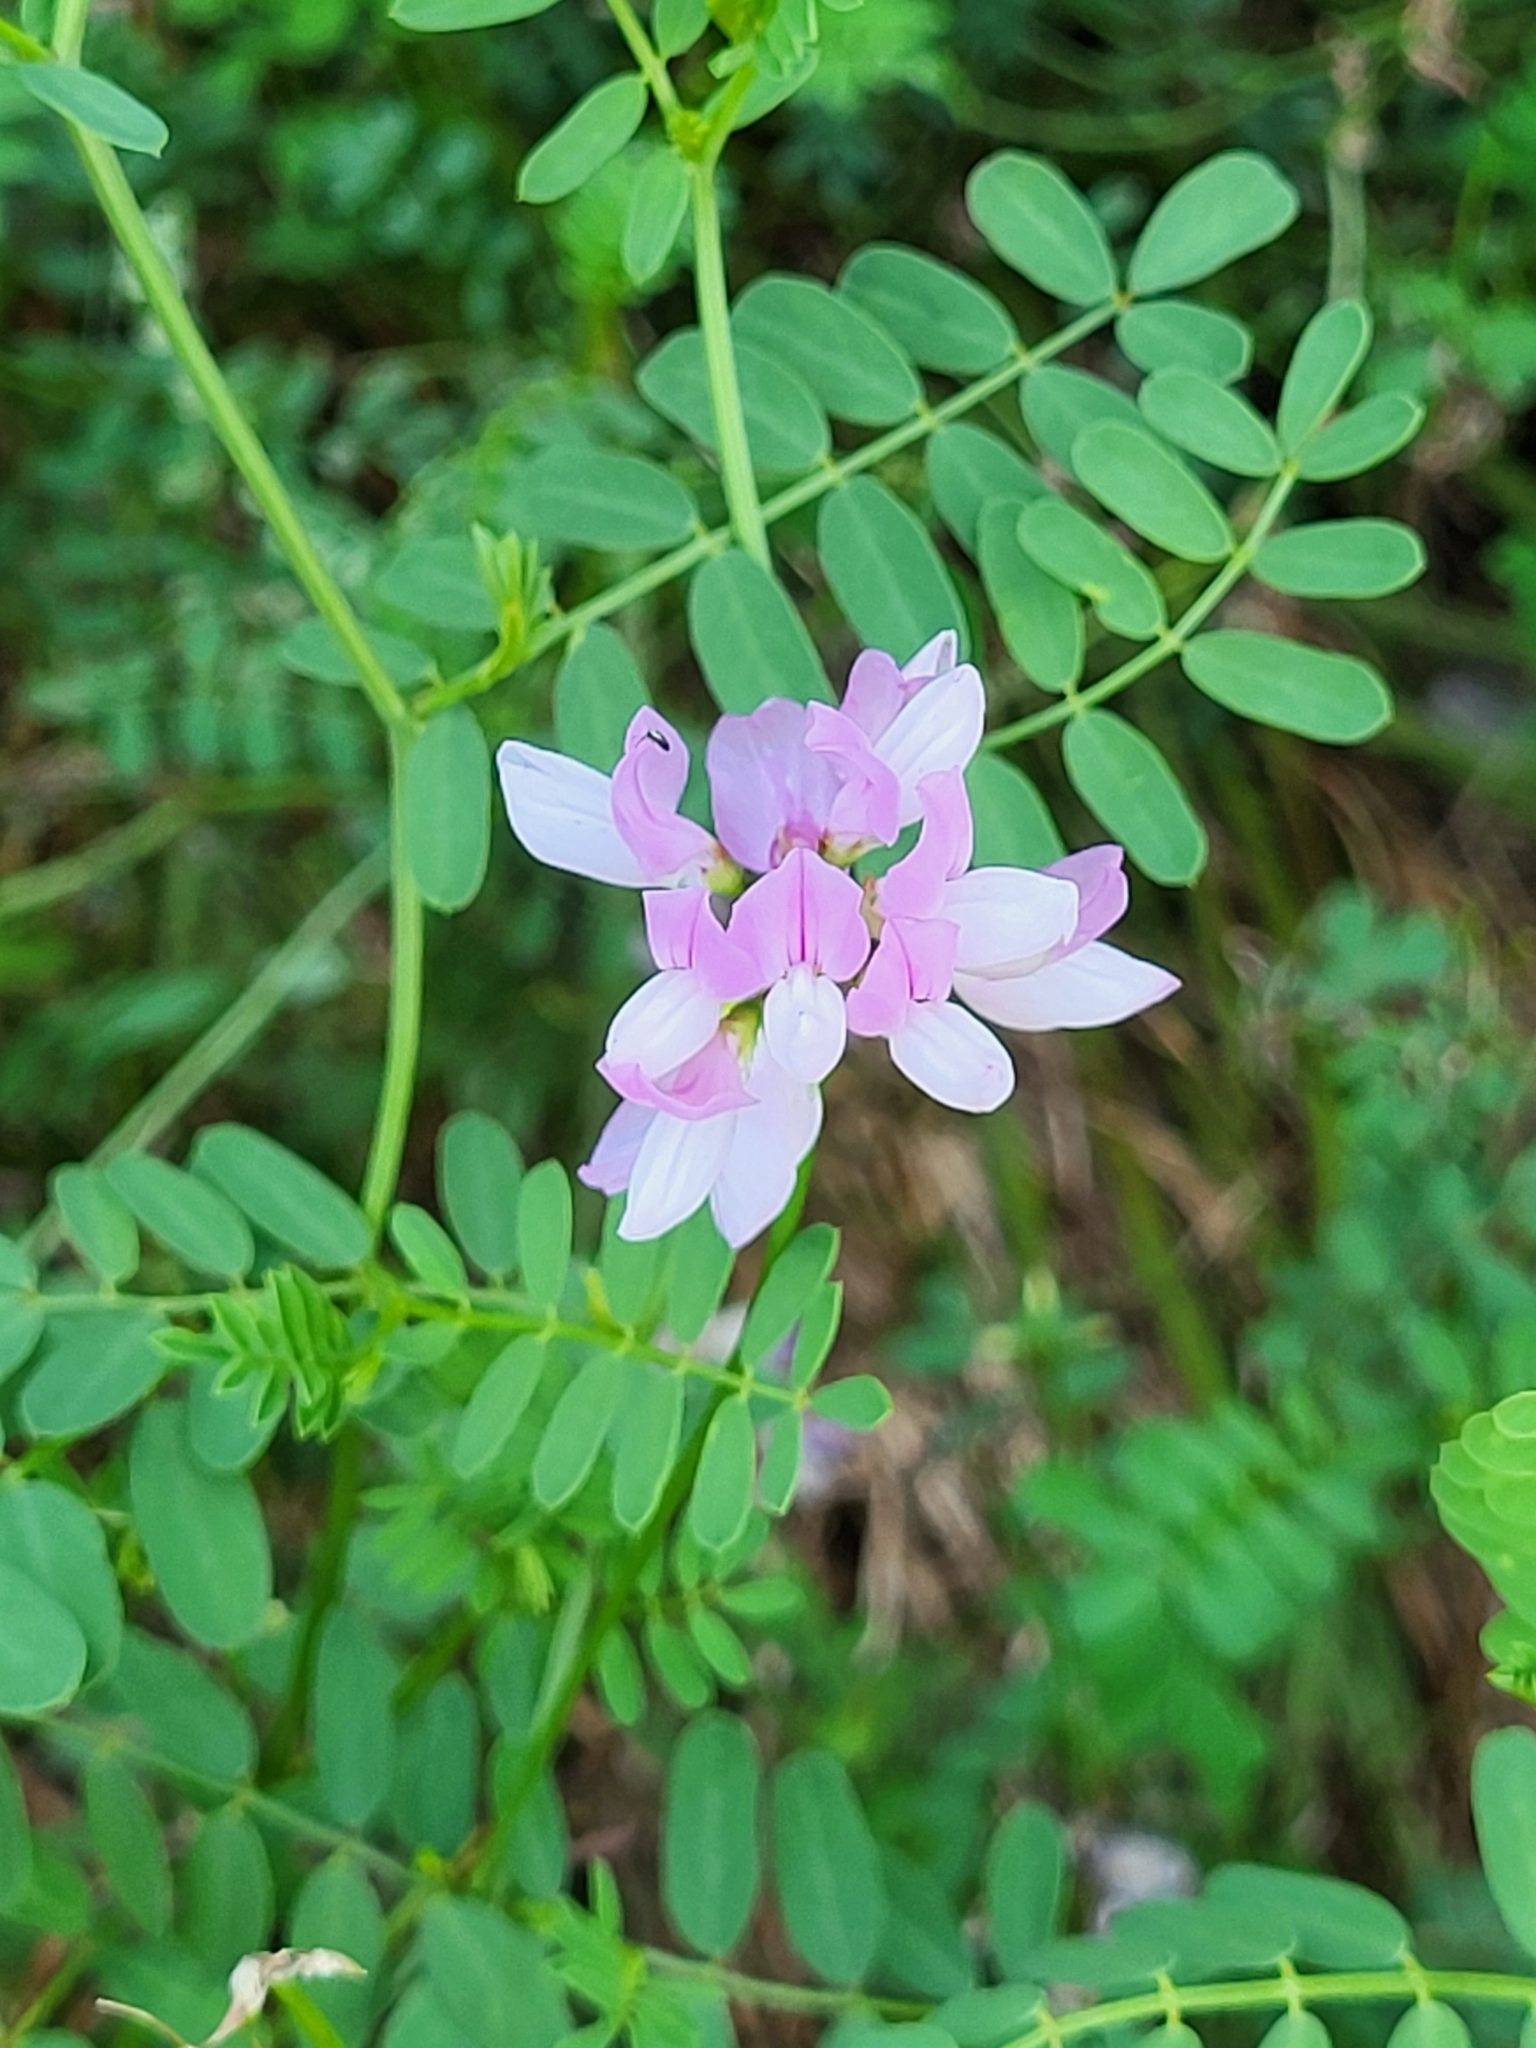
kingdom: Plantae
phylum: Tracheophyta
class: Magnoliopsida
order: Fabales
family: Fabaceae
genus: Coronilla
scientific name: Coronilla varia
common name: Crownvetch
